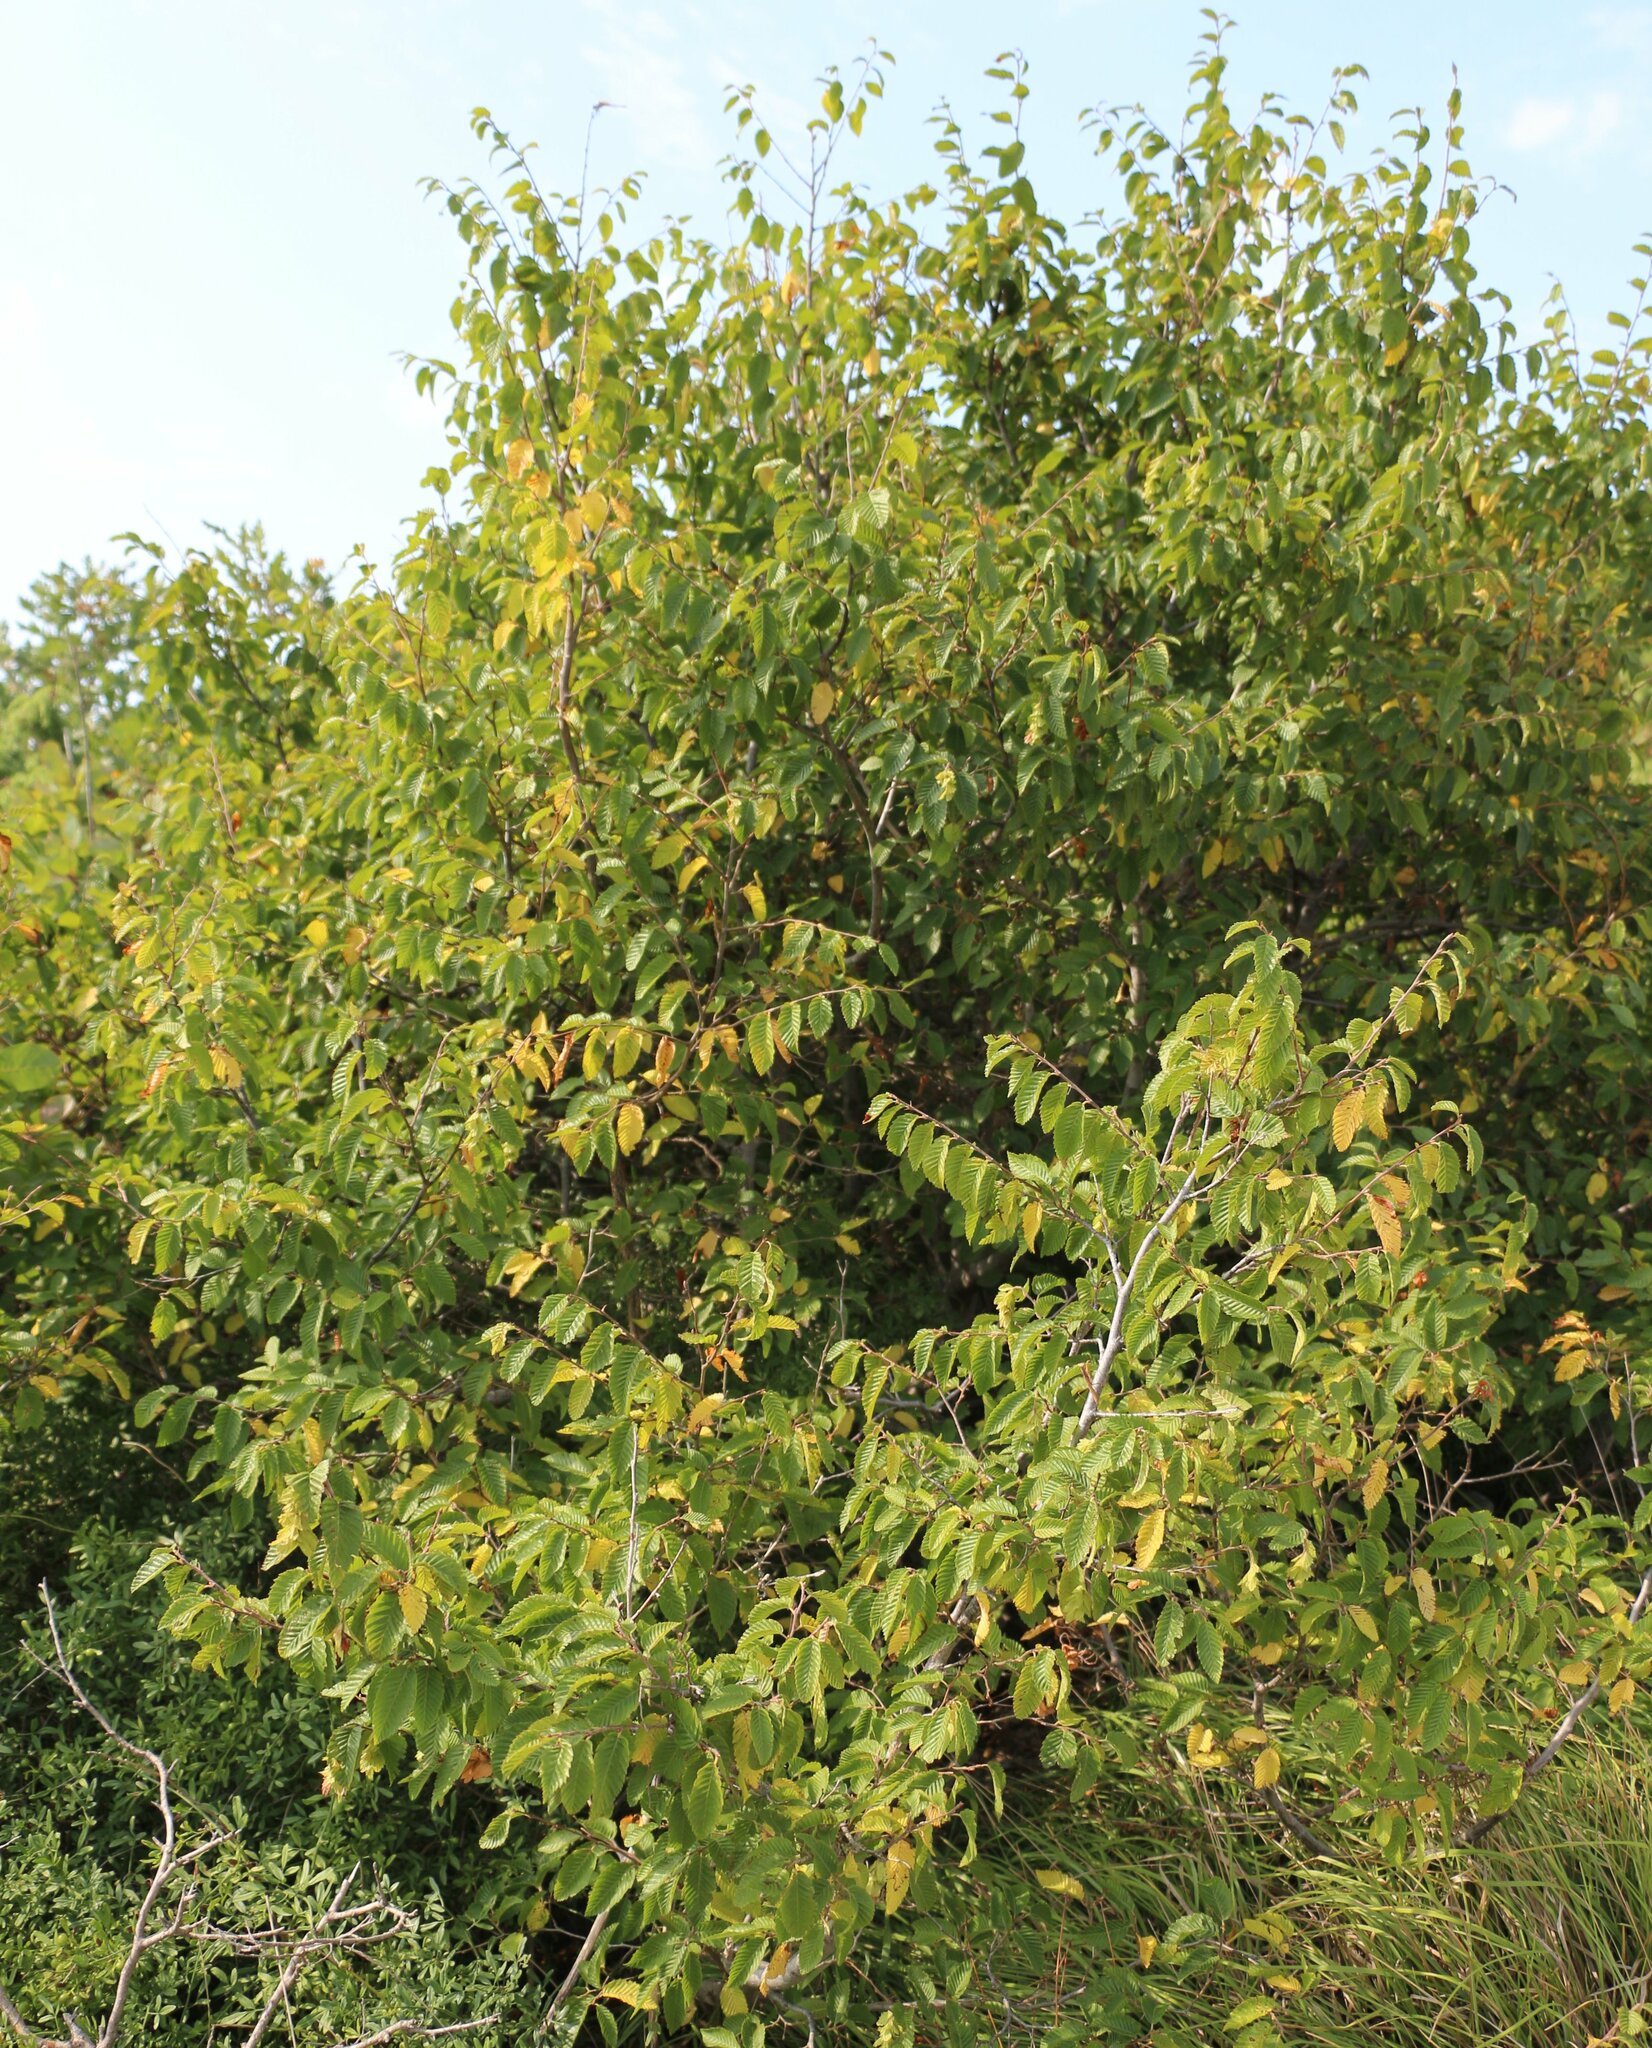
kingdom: Plantae
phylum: Tracheophyta
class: Magnoliopsida
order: Fagales
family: Betulaceae
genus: Carpinus
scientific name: Carpinus orientalis
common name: Eastern hornbeam
